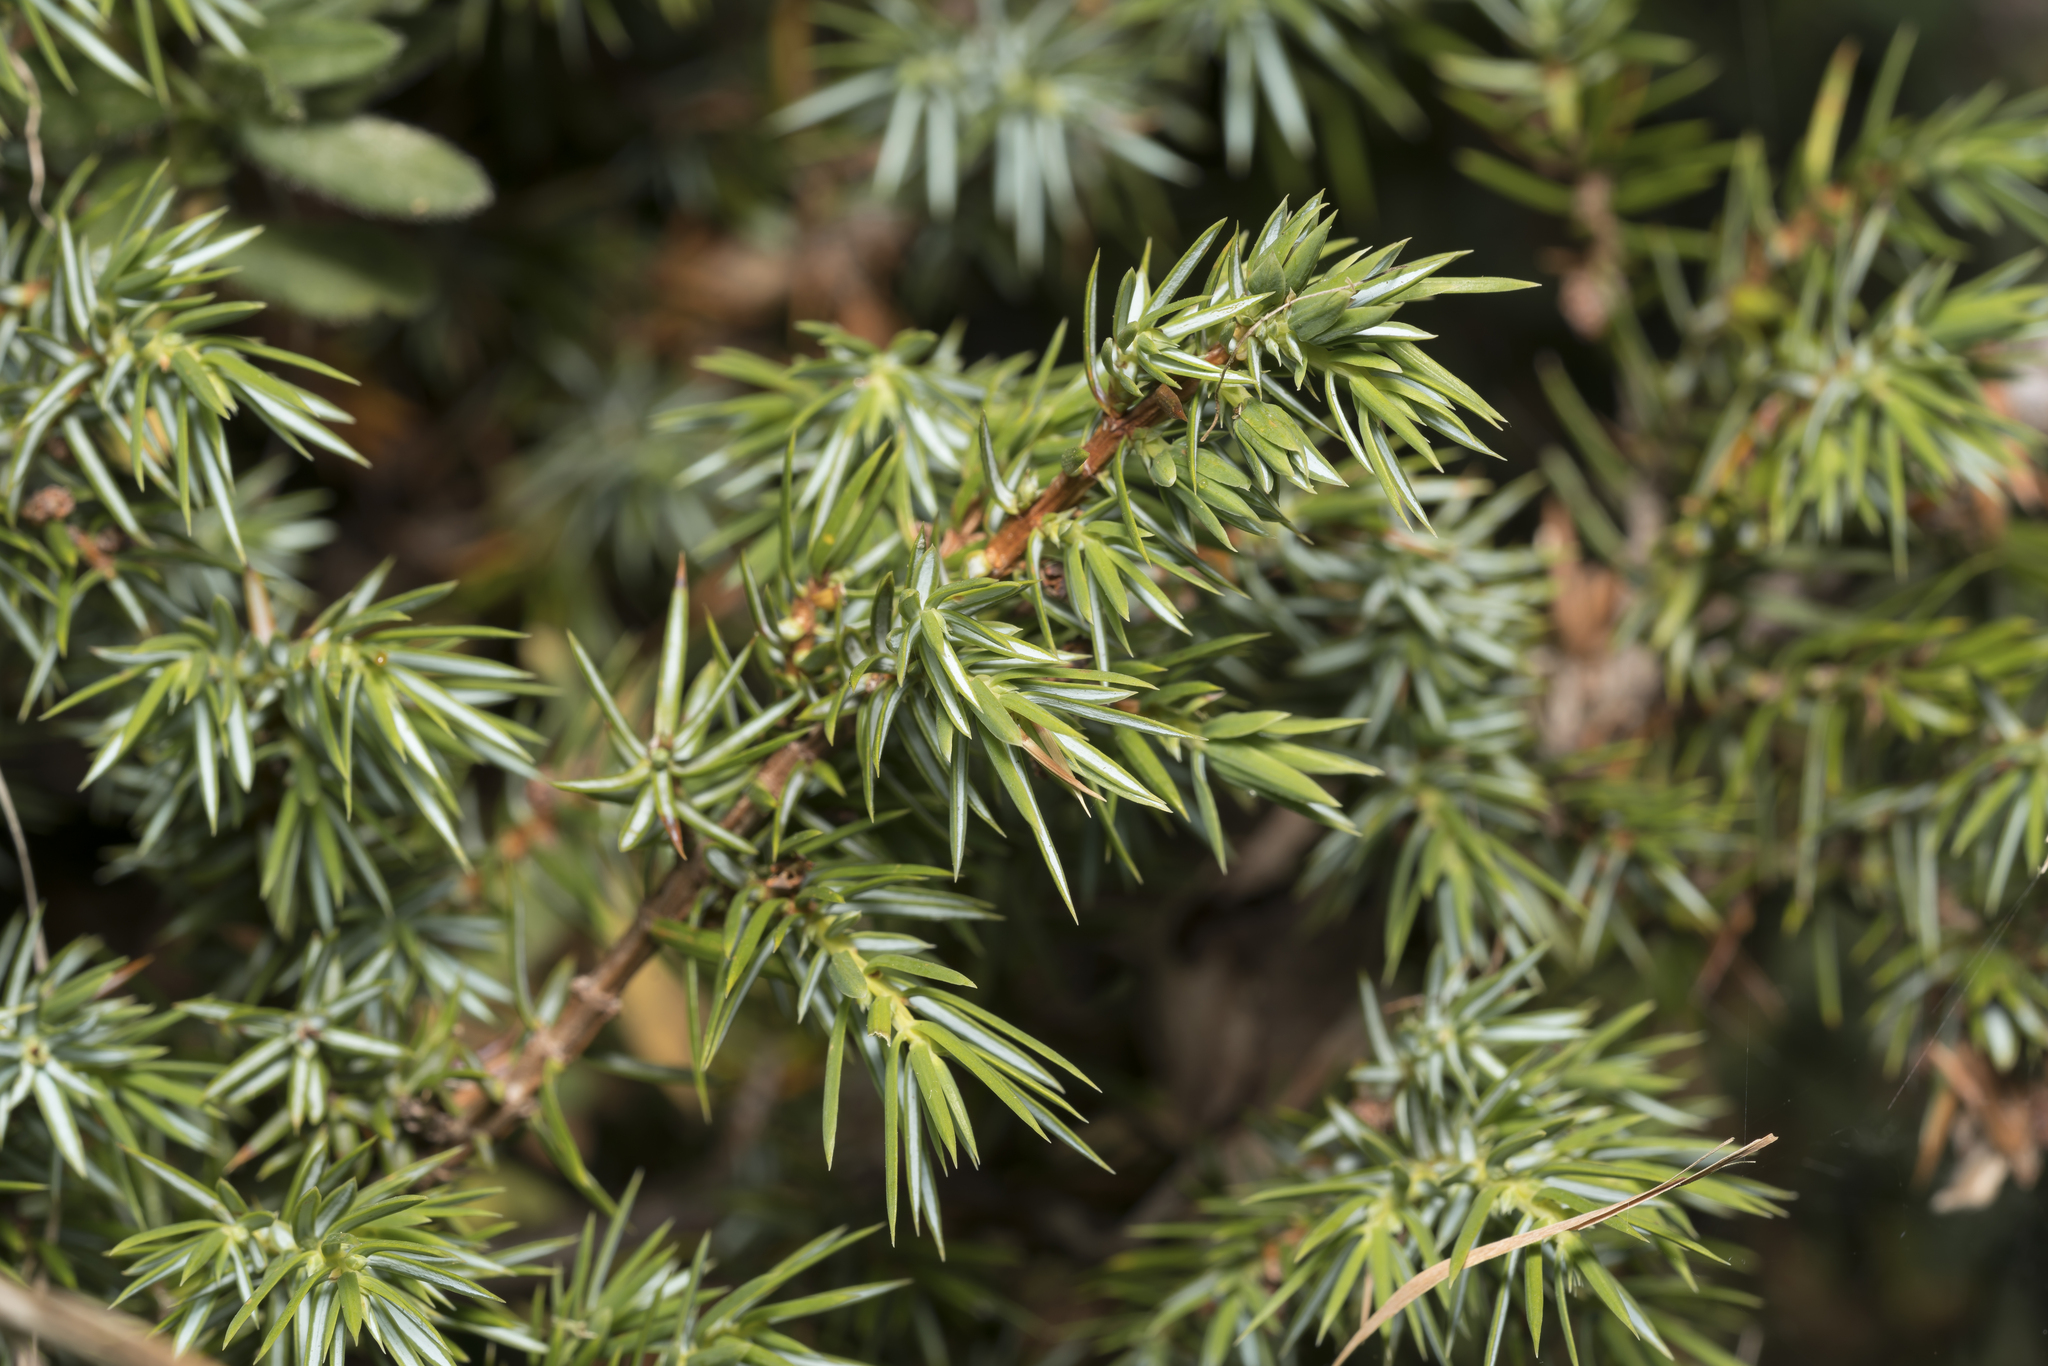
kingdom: Plantae
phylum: Tracheophyta
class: Pinopsida
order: Pinales
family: Cupressaceae
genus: Juniperus
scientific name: Juniperus communis
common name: Common juniper
